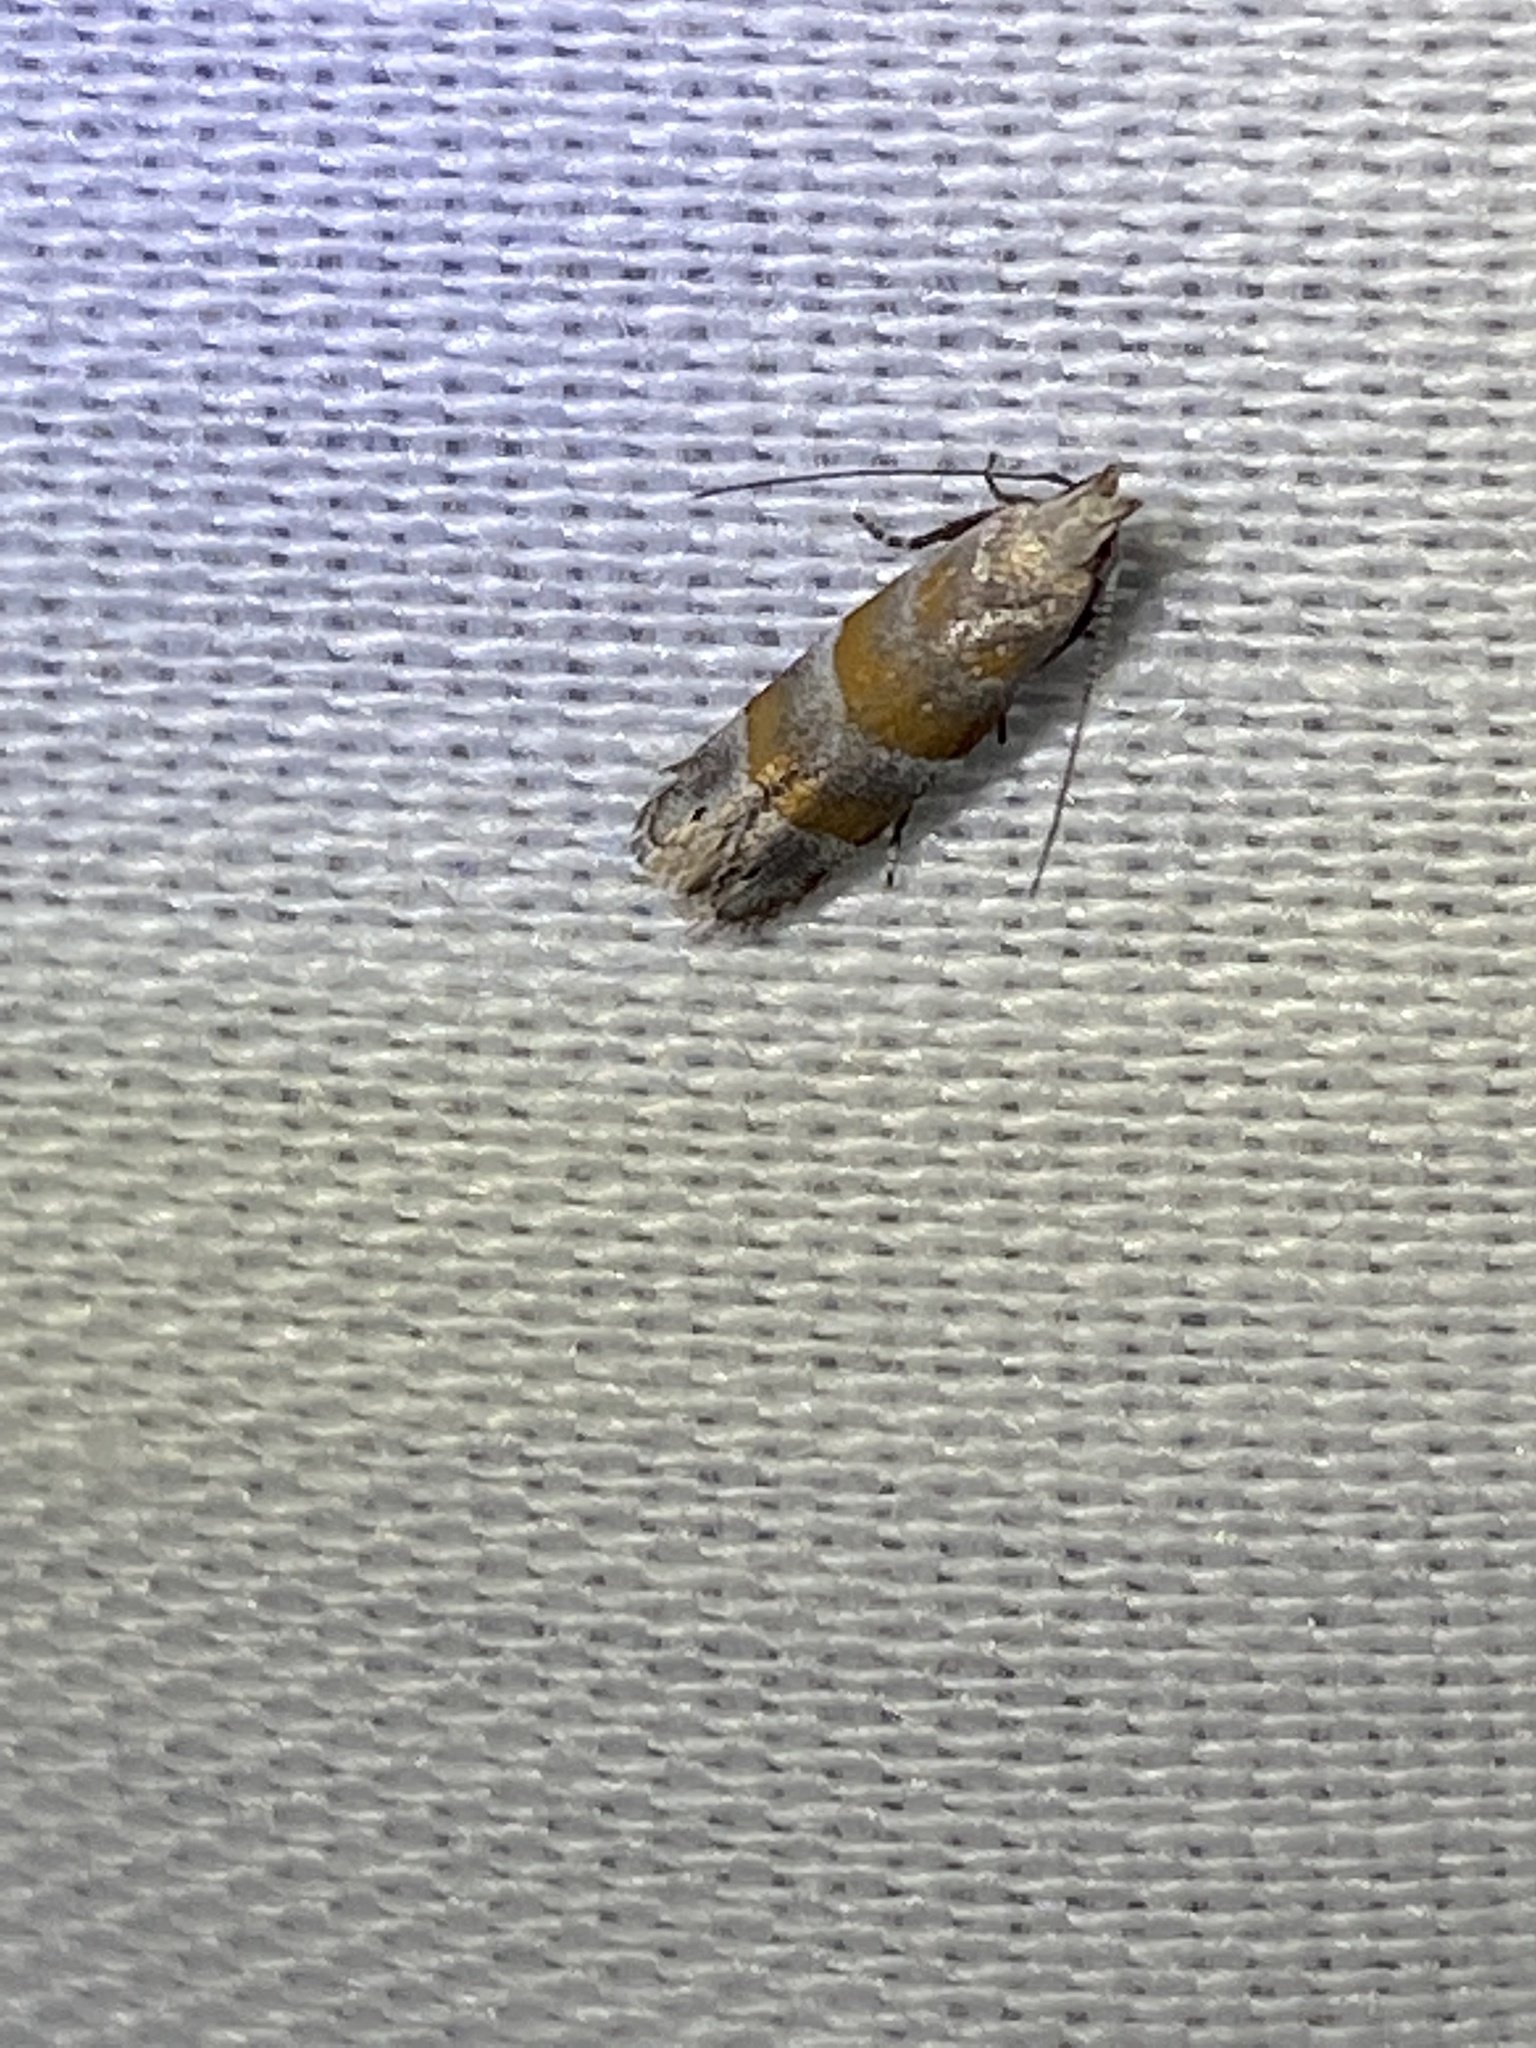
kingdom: Animalia
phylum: Arthropoda
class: Insecta
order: Lepidoptera
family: Gelechiidae
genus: Battaristis
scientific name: Battaristis vittella
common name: Orange stripe-backed moth
